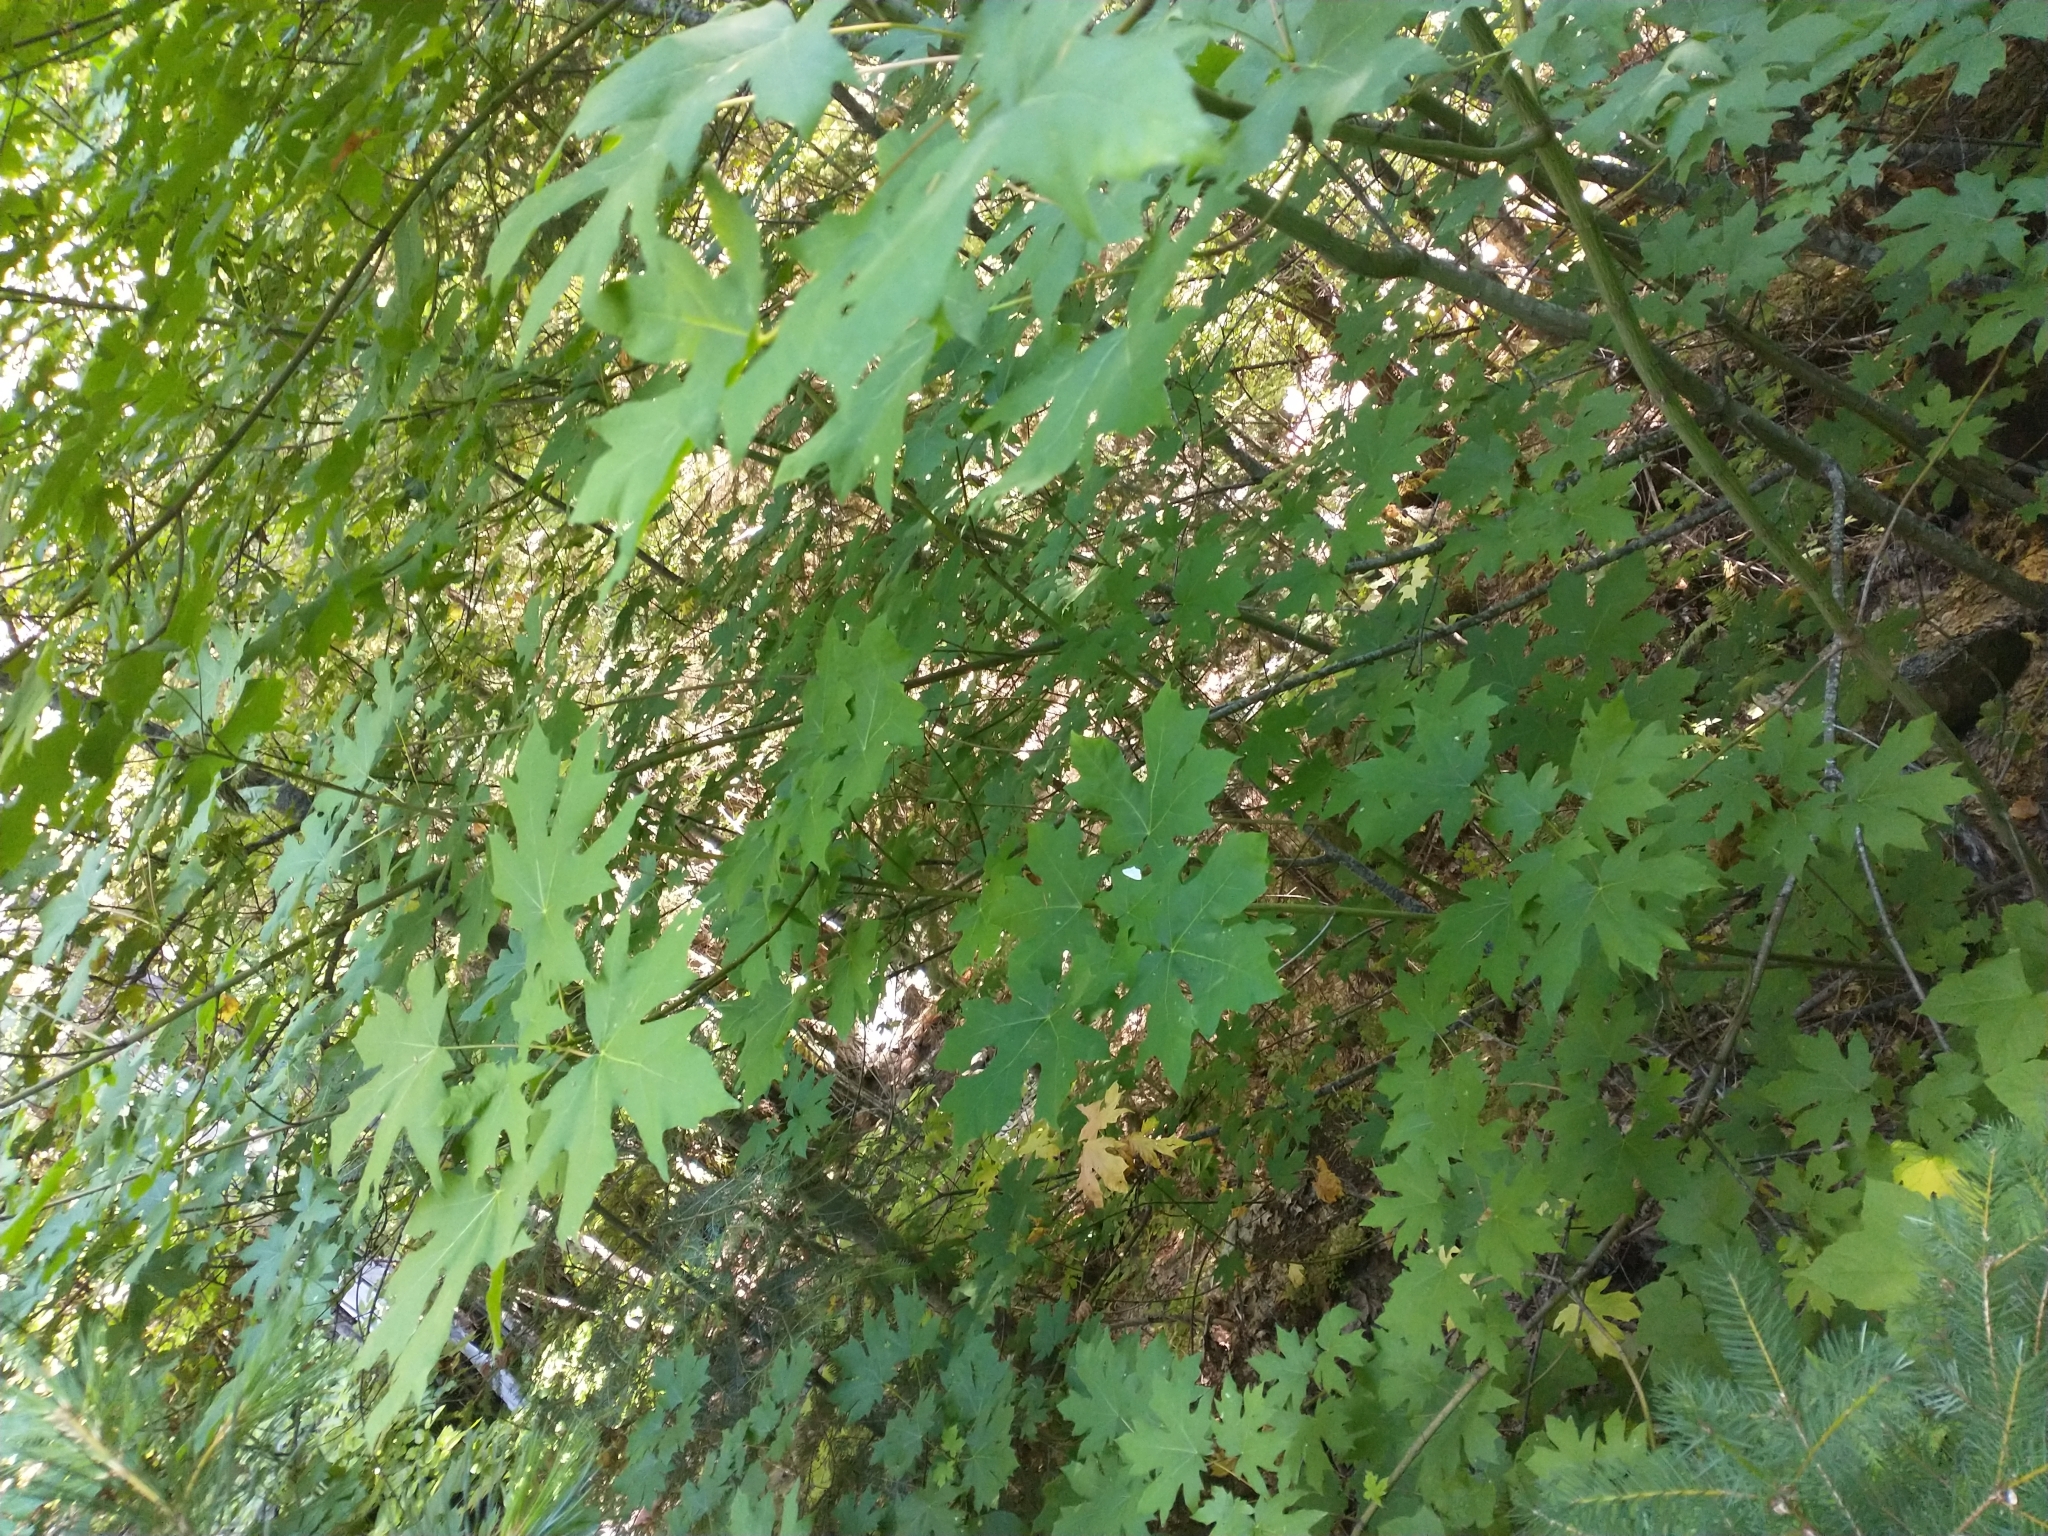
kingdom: Plantae
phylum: Tracheophyta
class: Magnoliopsida
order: Sapindales
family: Sapindaceae
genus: Acer
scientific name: Acer macrophyllum
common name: Oregon maple
